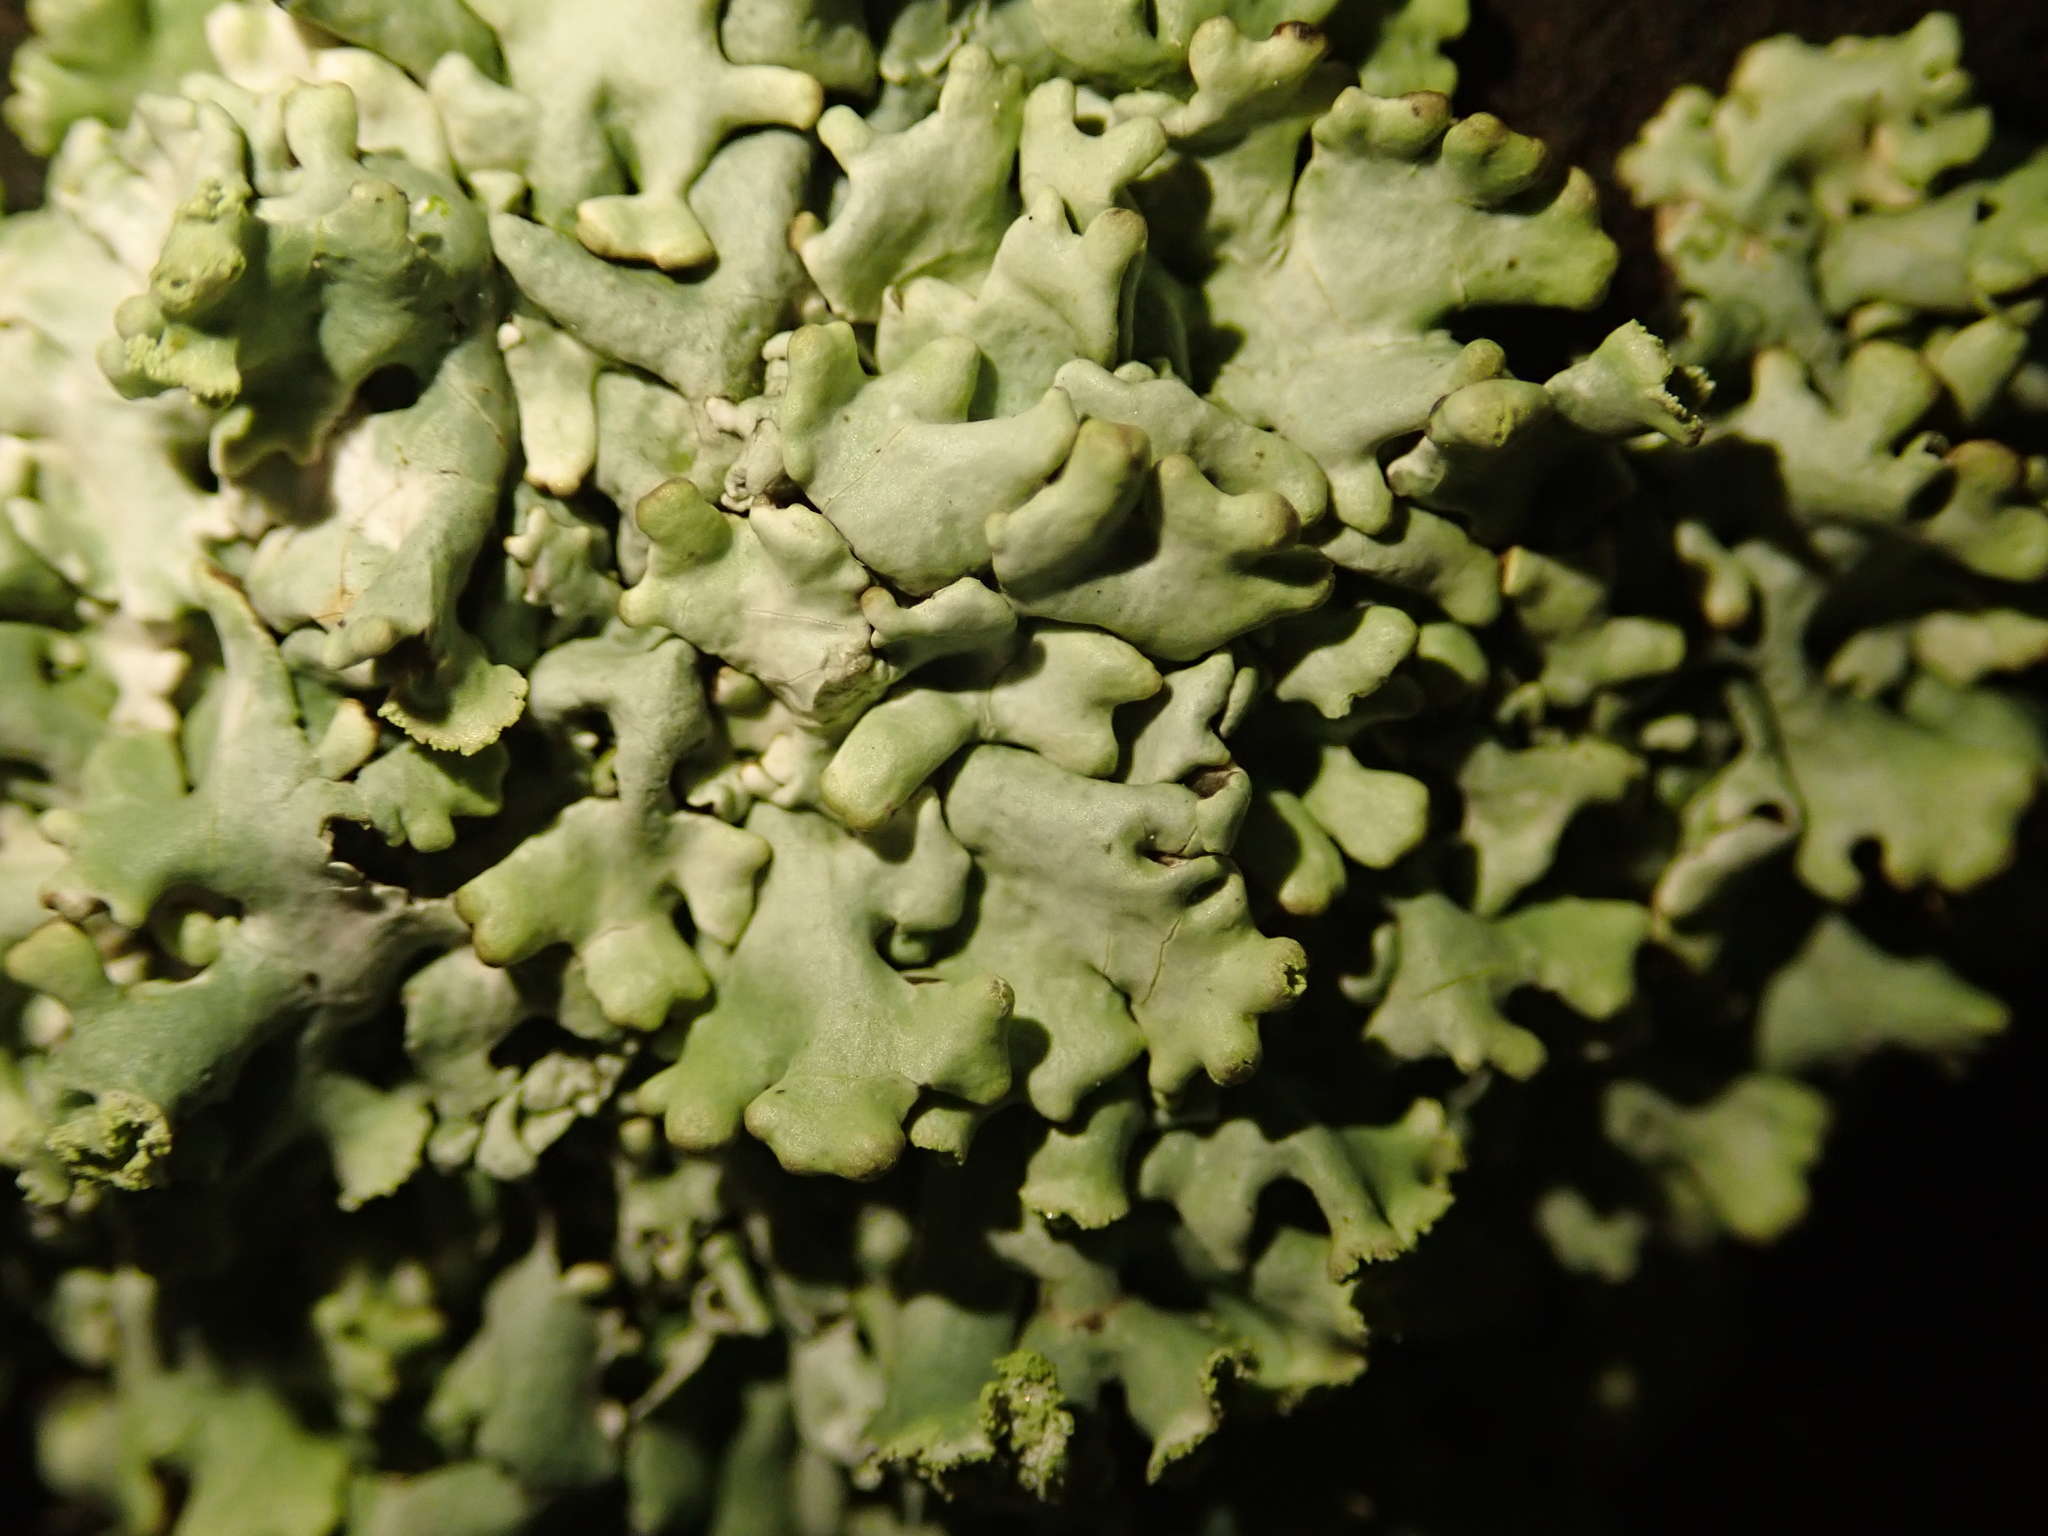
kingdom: Fungi
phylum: Ascomycota
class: Lecanoromycetes
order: Lecanorales
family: Parmeliaceae
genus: Hypogymnia
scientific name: Hypogymnia physodes
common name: Dark crottle
